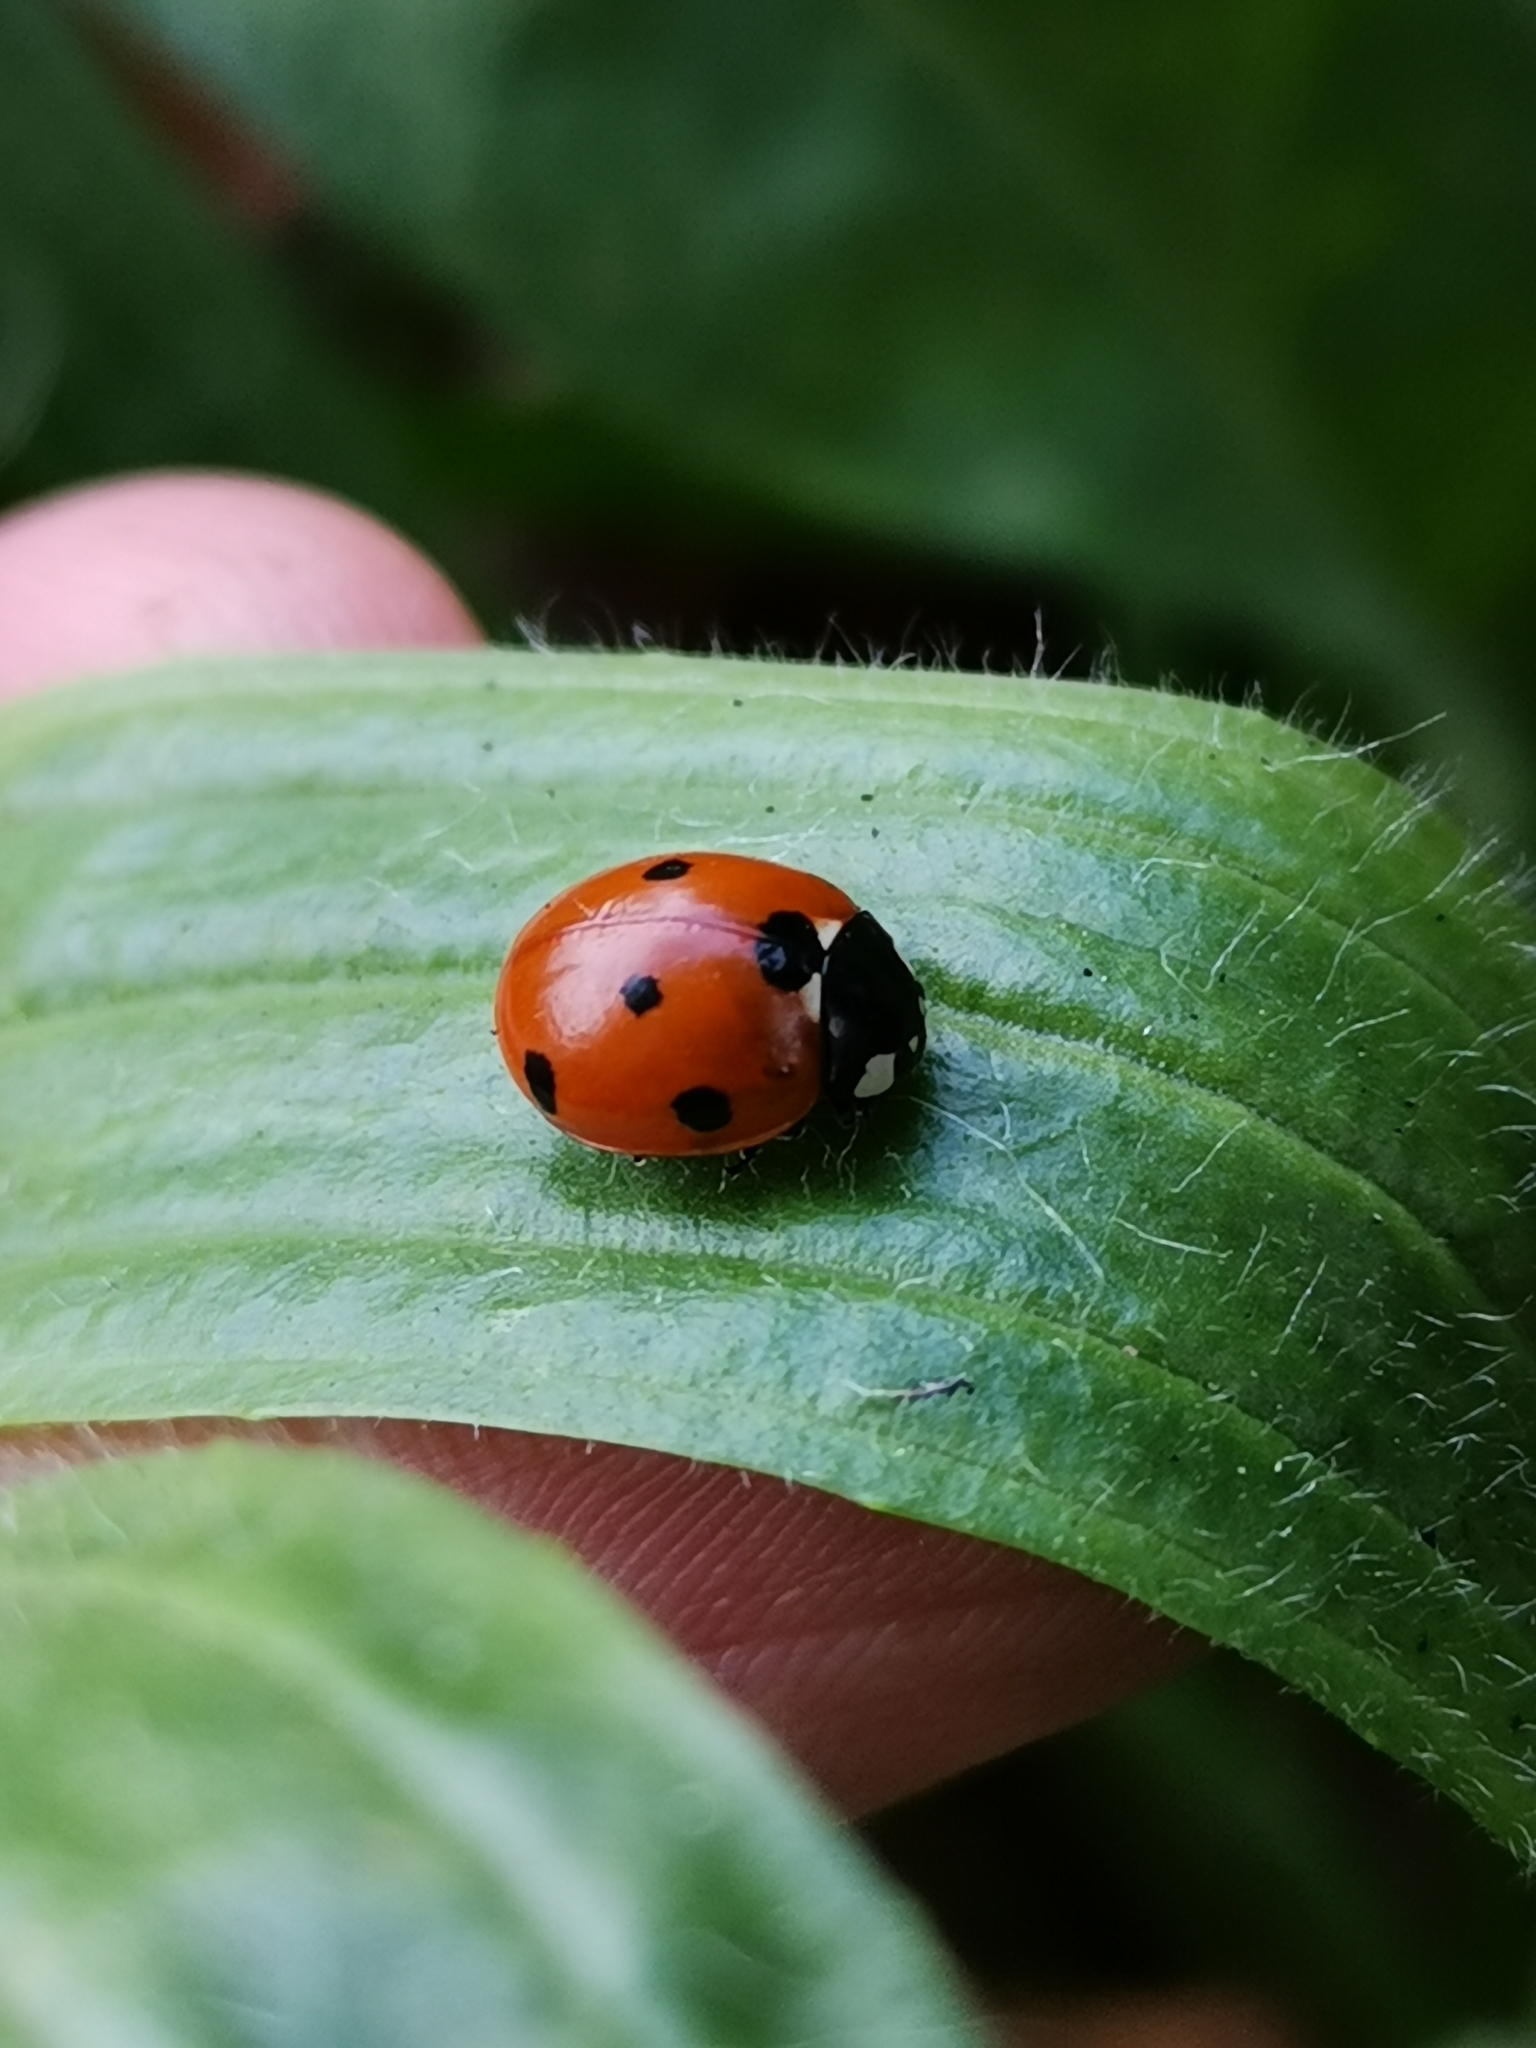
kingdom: Animalia
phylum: Arthropoda
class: Insecta
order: Coleoptera
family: Coccinellidae
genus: Coccinella
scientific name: Coccinella septempunctata
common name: Sevenspotted lady beetle
